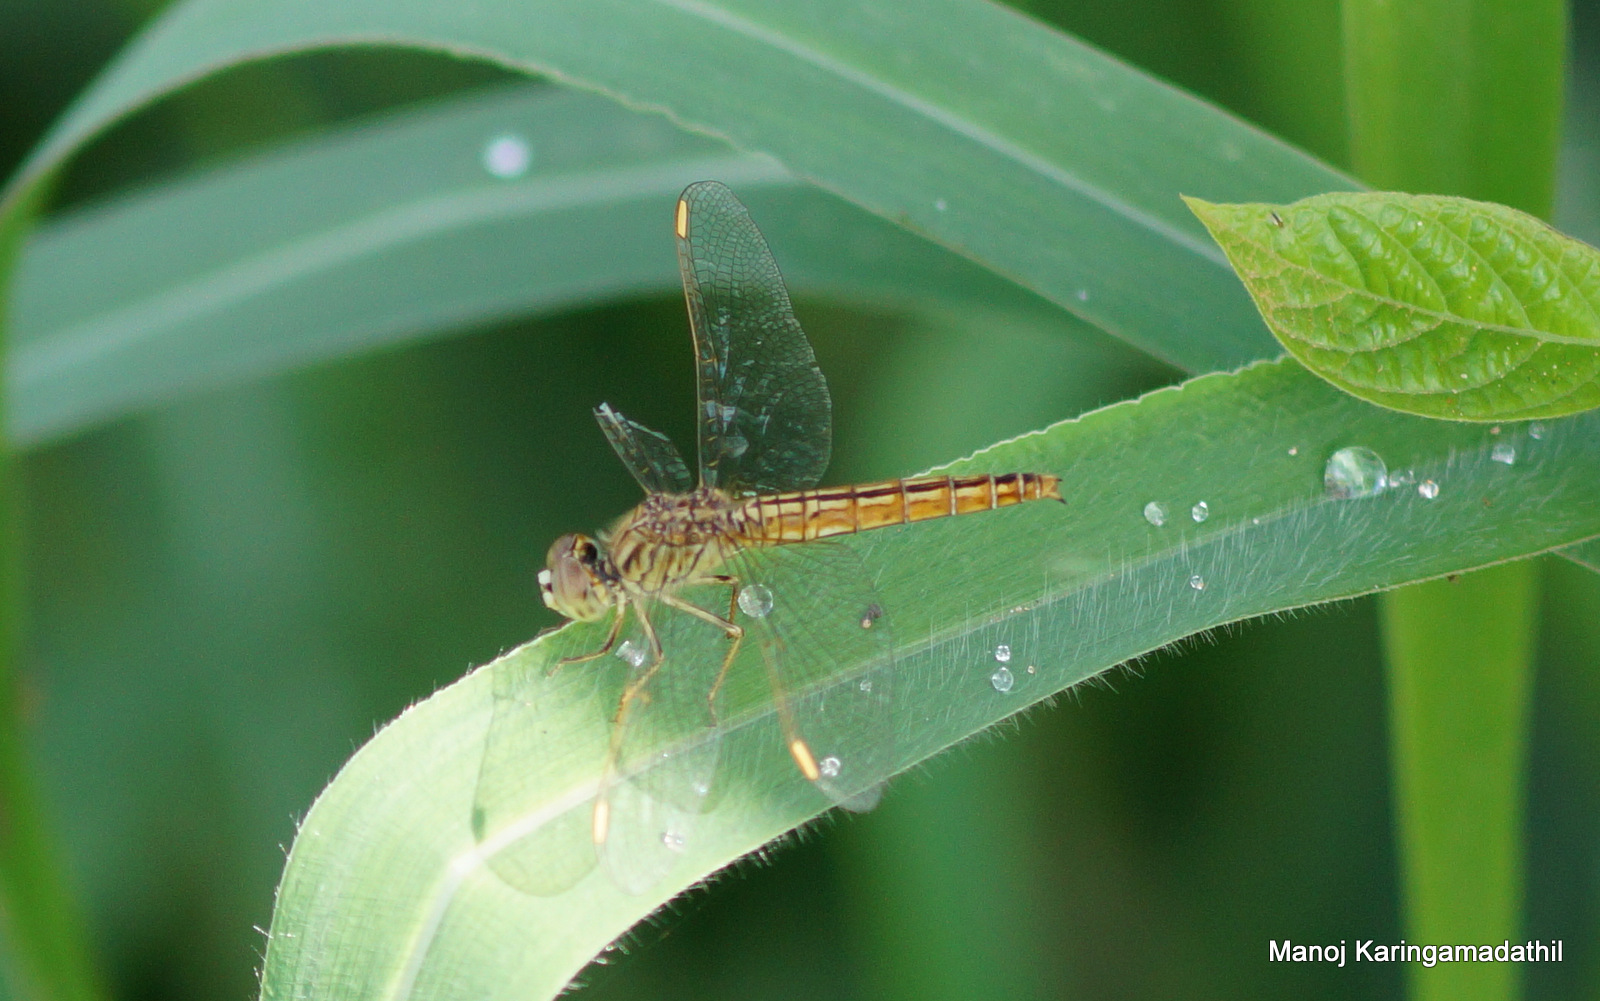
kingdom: Animalia
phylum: Arthropoda
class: Insecta
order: Odonata
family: Libellulidae
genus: Brachythemis
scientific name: Brachythemis contaminata
